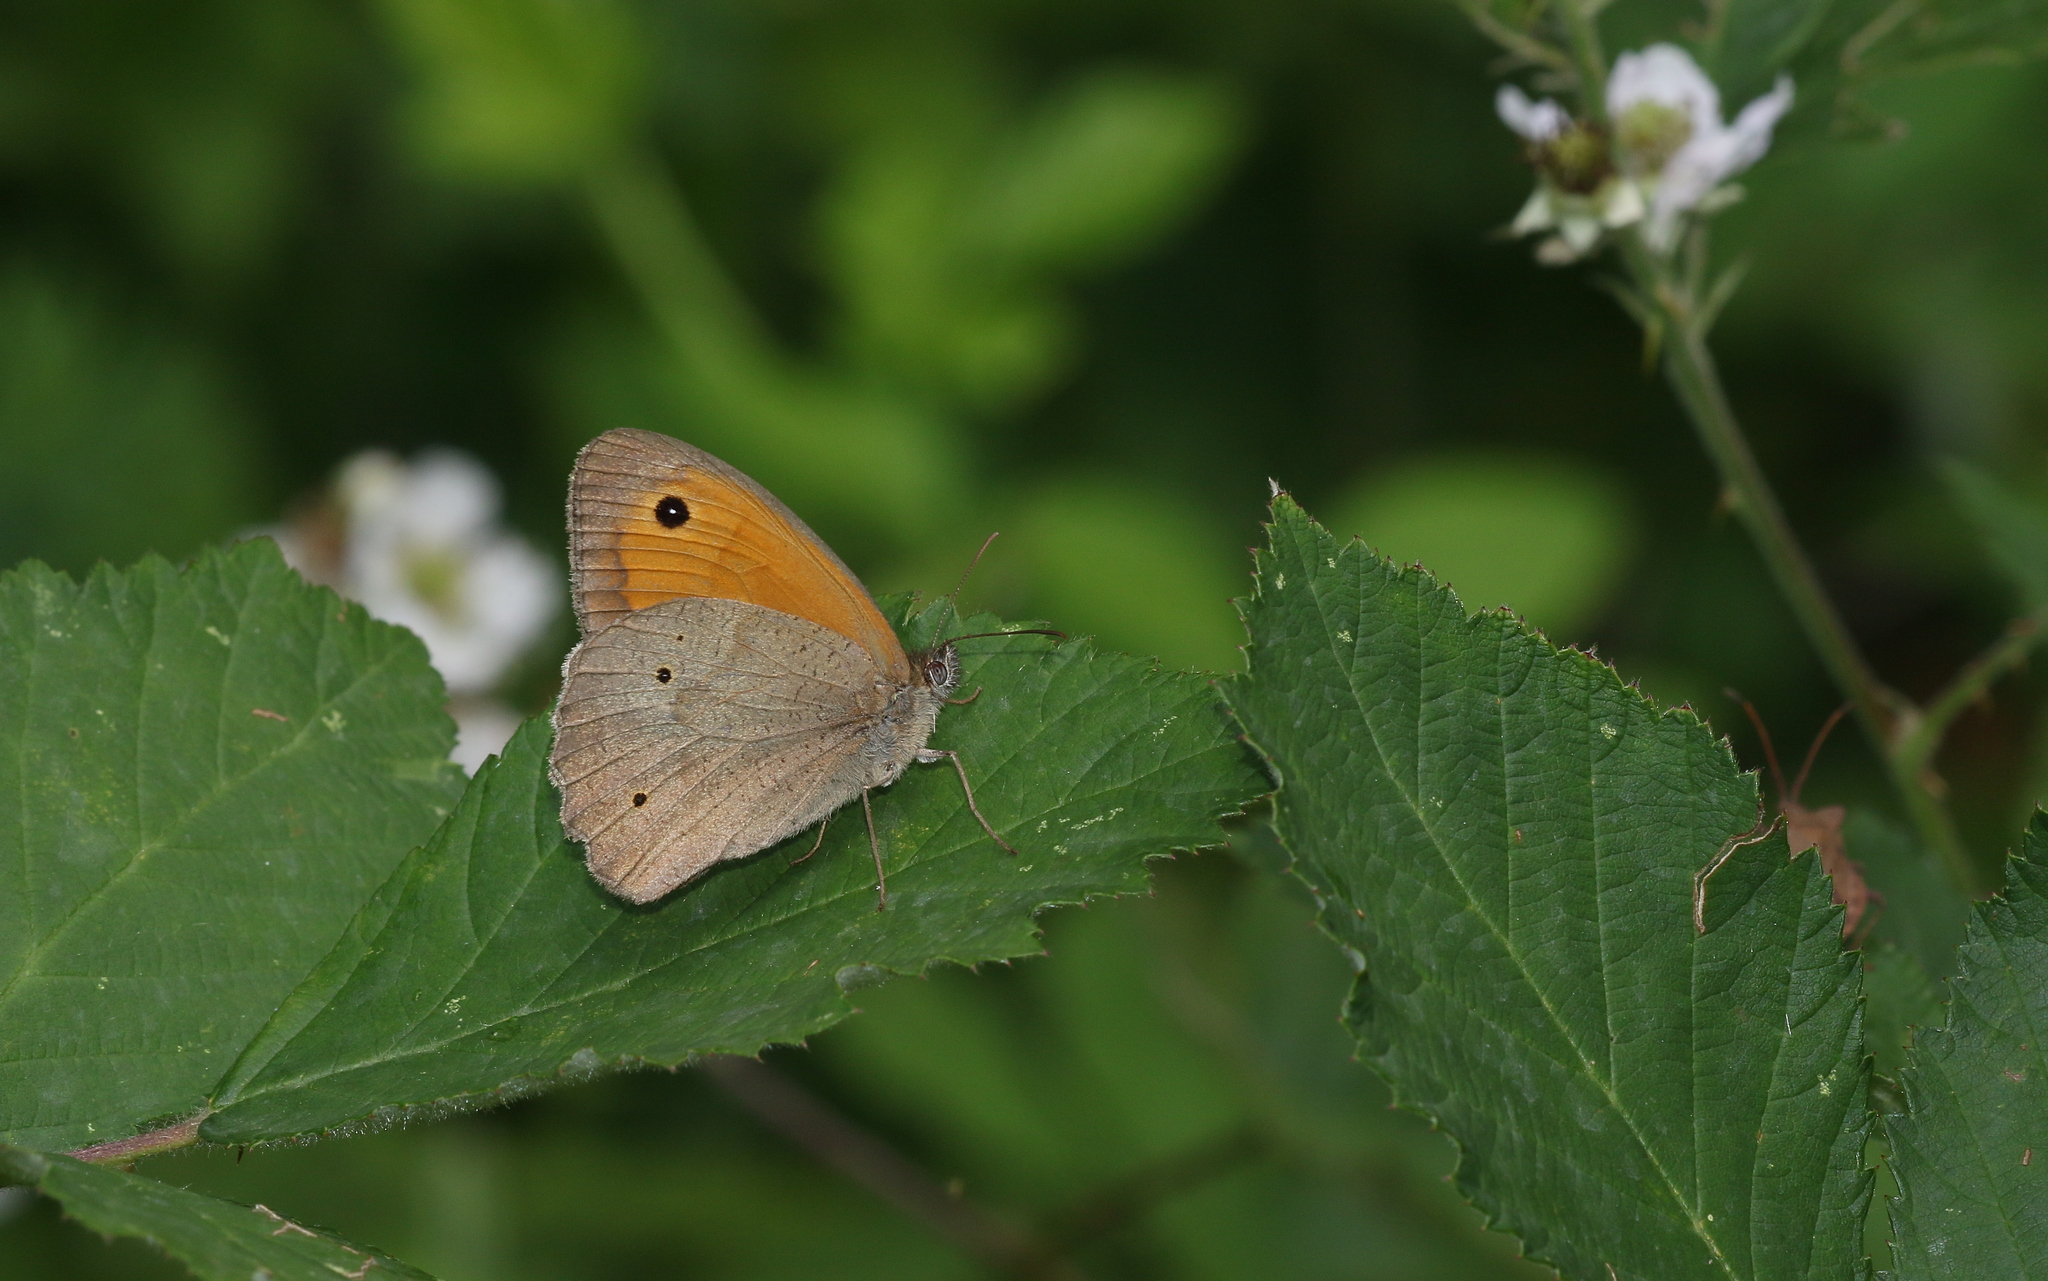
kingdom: Animalia
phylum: Arthropoda
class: Insecta
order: Lepidoptera
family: Nymphalidae
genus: Maniola
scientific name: Maniola jurtina
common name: Meadow brown
